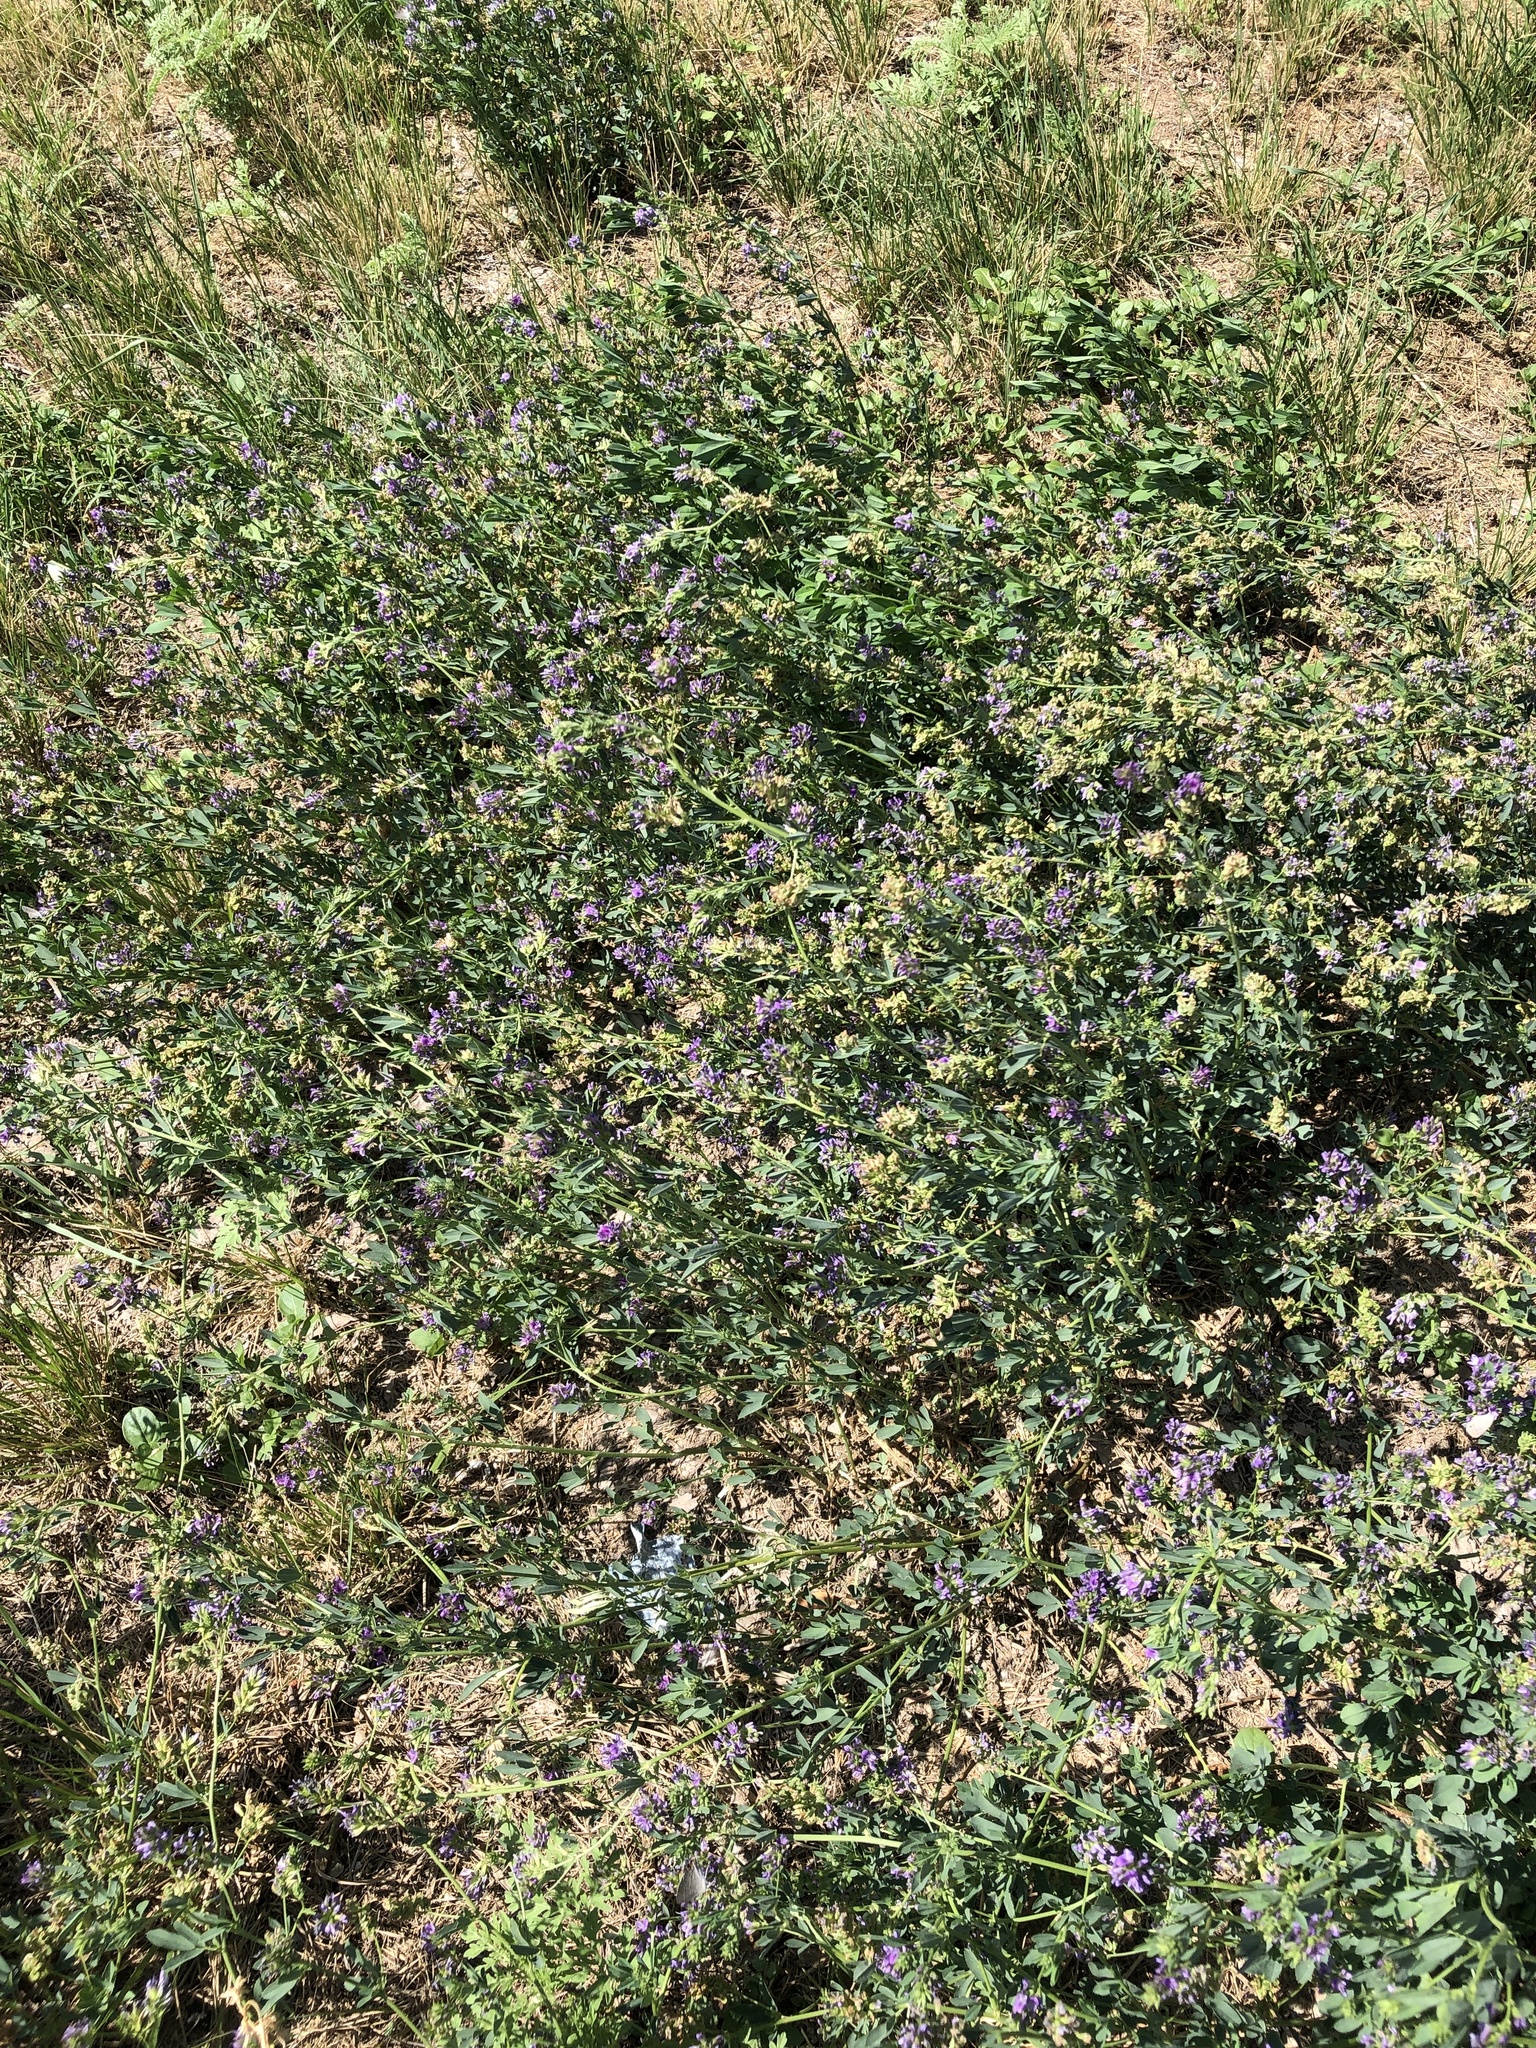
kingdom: Plantae
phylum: Tracheophyta
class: Magnoliopsida
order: Fabales
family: Fabaceae
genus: Medicago
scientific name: Medicago sativa
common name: Alfalfa
